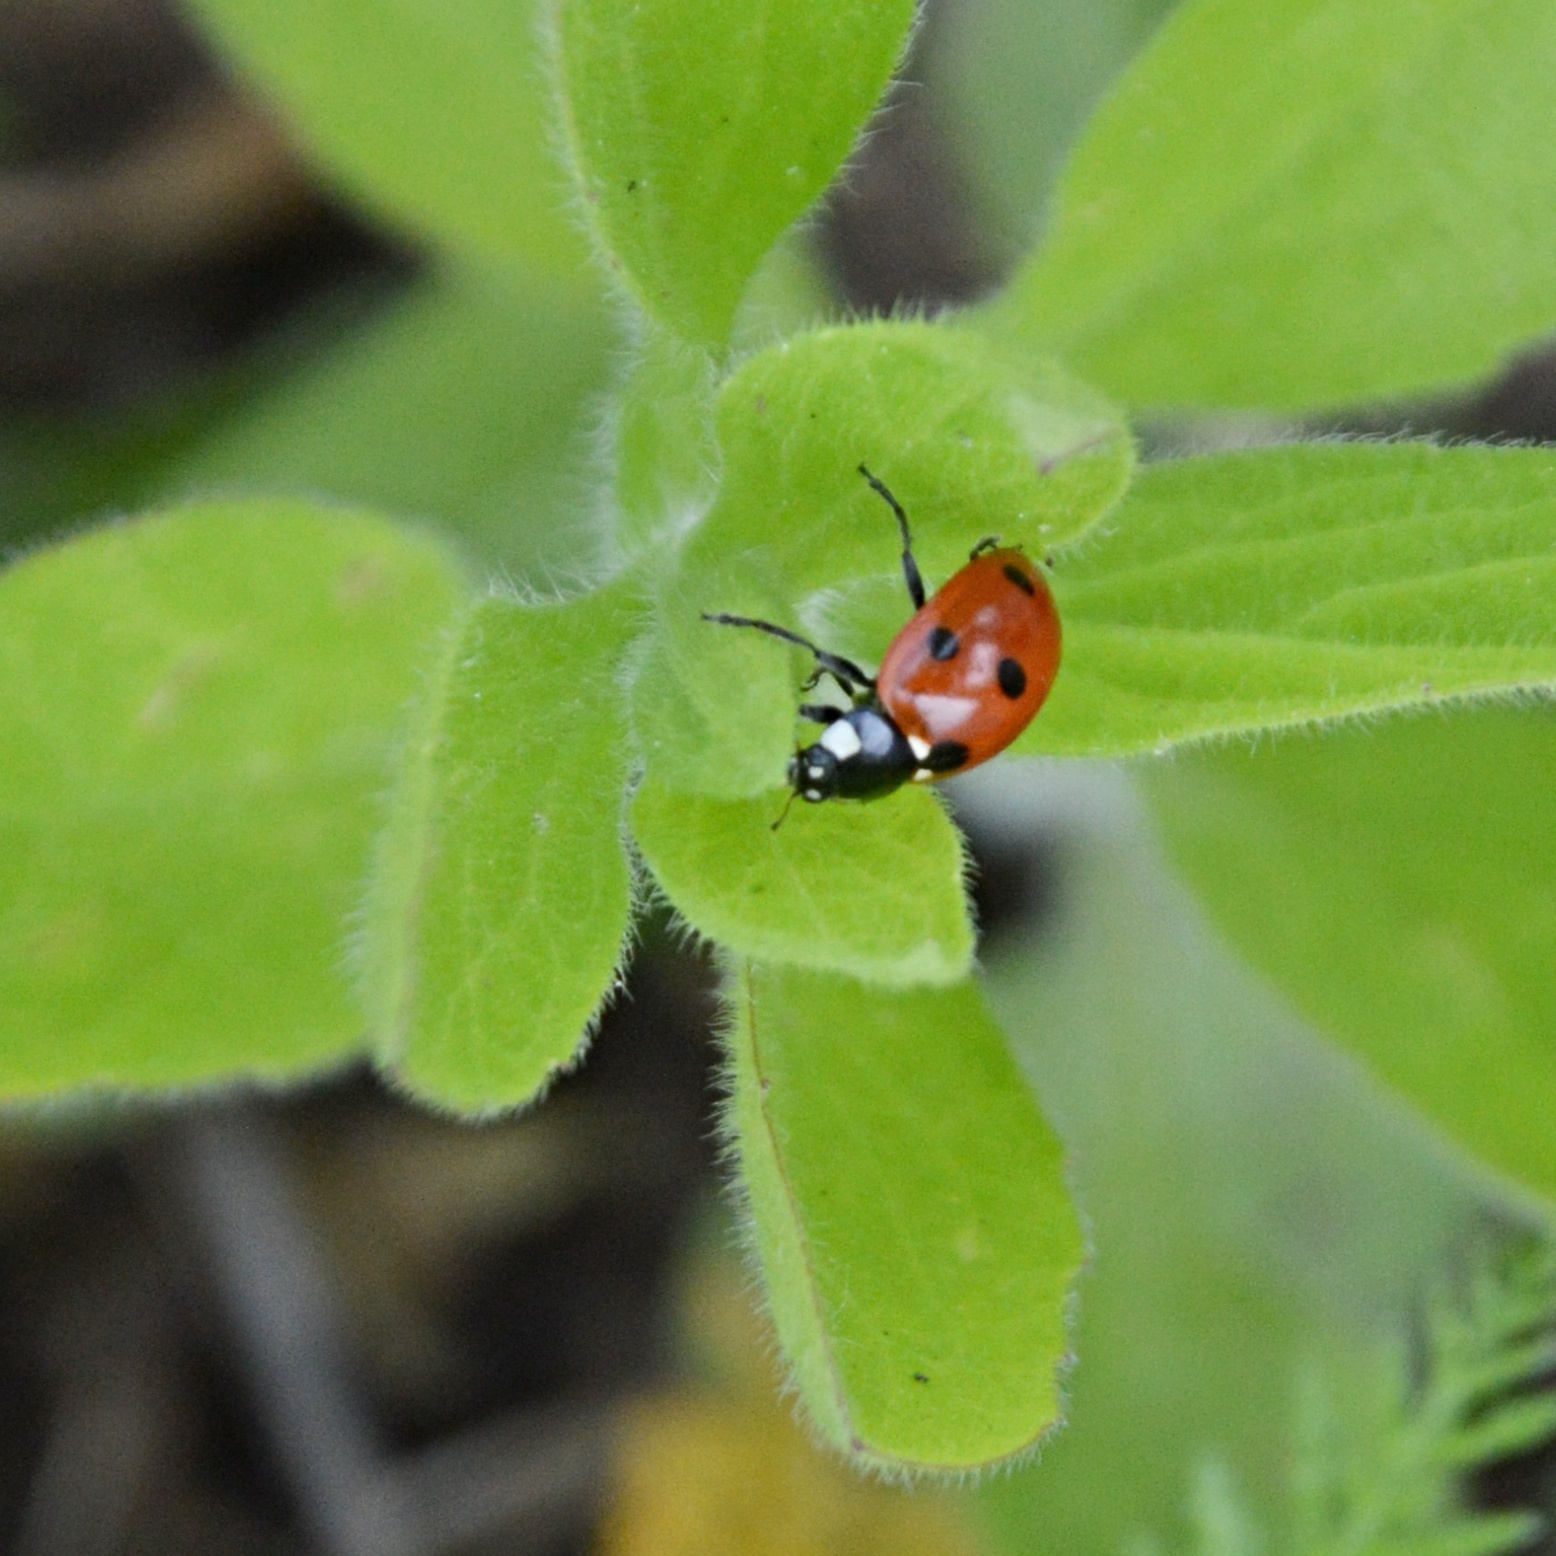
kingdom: Animalia
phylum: Arthropoda
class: Insecta
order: Coleoptera
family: Coccinellidae
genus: Coccinella
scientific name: Coccinella septempunctata
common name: Sevenspotted lady beetle
